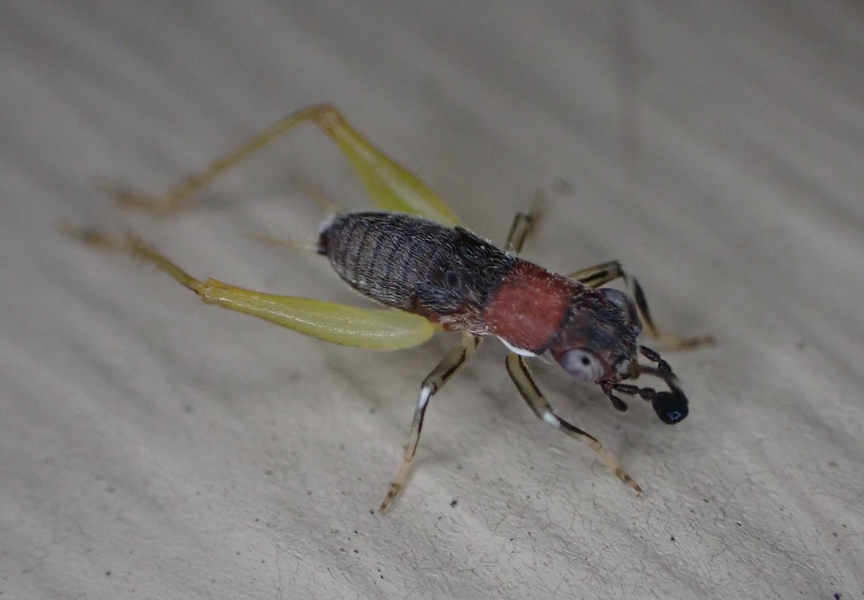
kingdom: Animalia
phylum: Arthropoda
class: Insecta
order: Orthoptera
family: Trigonidiidae
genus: Phyllopalpus
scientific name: Phyllopalpus pulchellus
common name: Handsome trig
